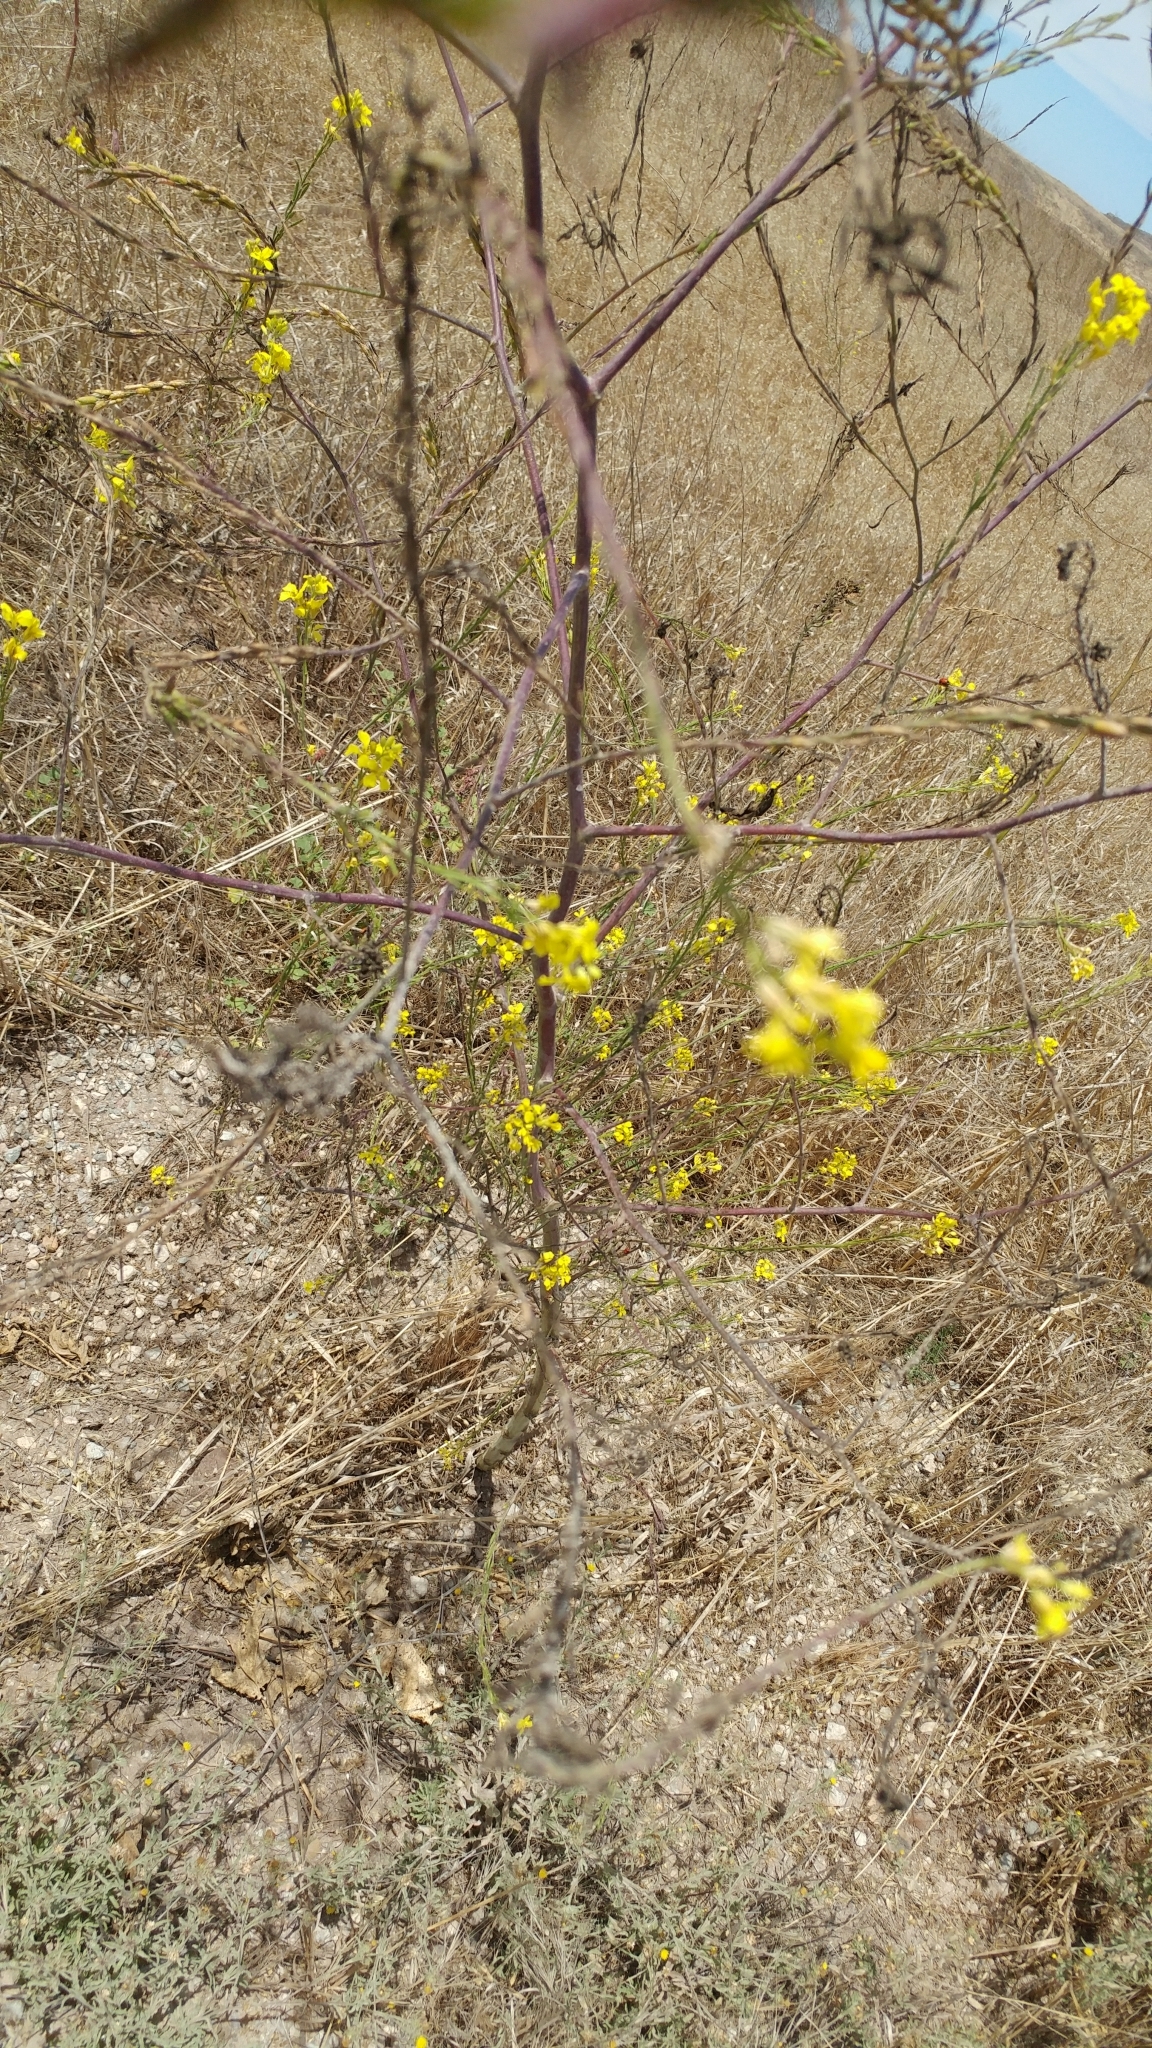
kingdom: Plantae
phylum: Tracheophyta
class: Magnoliopsida
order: Brassicales
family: Brassicaceae
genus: Brassica
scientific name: Brassica nigra
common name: Black mustard
